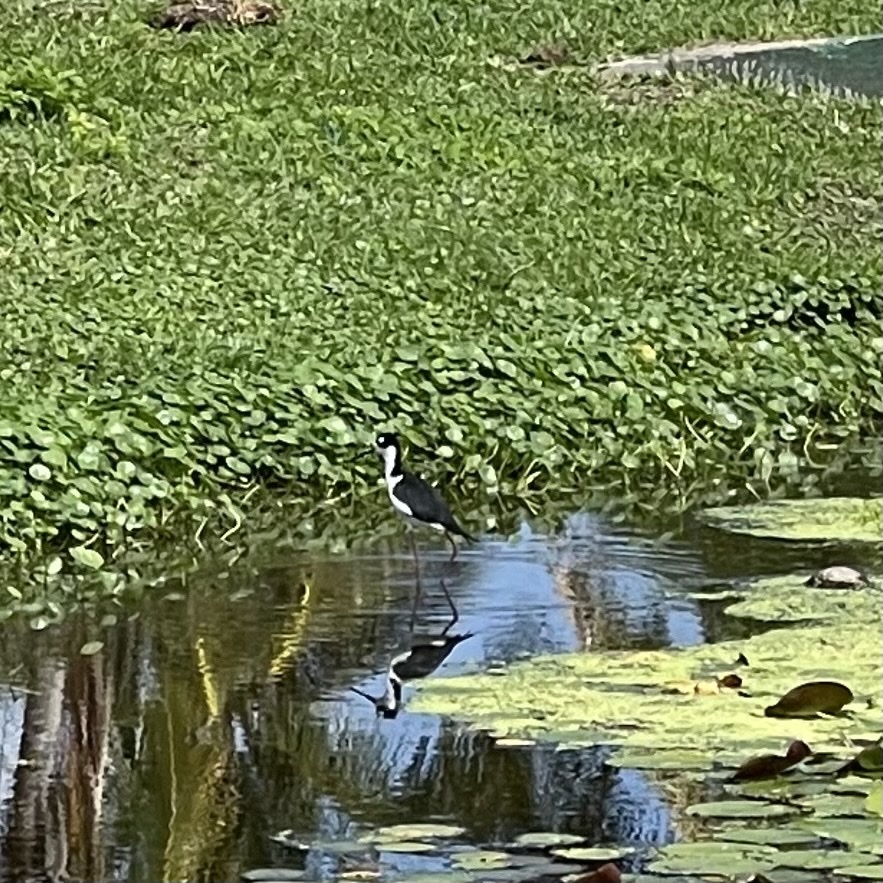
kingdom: Animalia
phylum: Chordata
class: Aves
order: Charadriiformes
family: Recurvirostridae
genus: Himantopus
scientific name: Himantopus mexicanus
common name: Black-necked stilt
